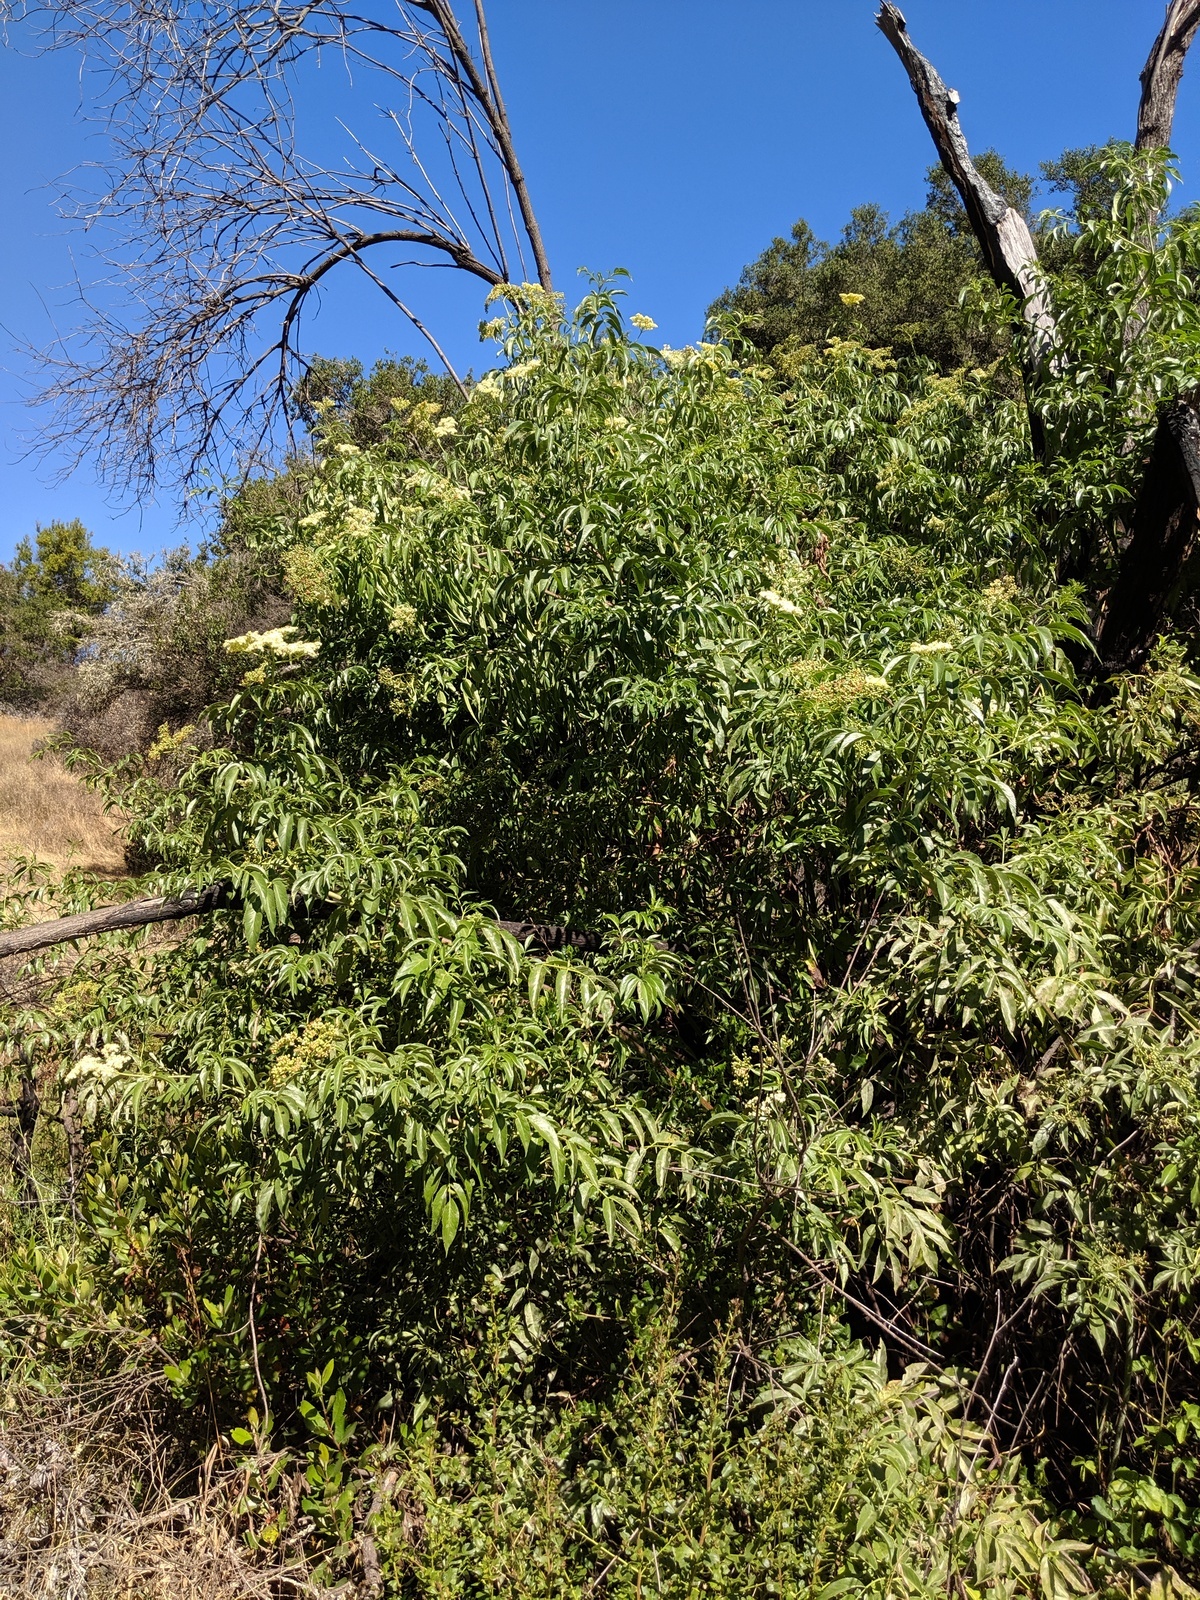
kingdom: Plantae
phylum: Tracheophyta
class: Magnoliopsida
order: Dipsacales
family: Viburnaceae
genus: Sambucus
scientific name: Sambucus cerulea
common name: Blue elder
